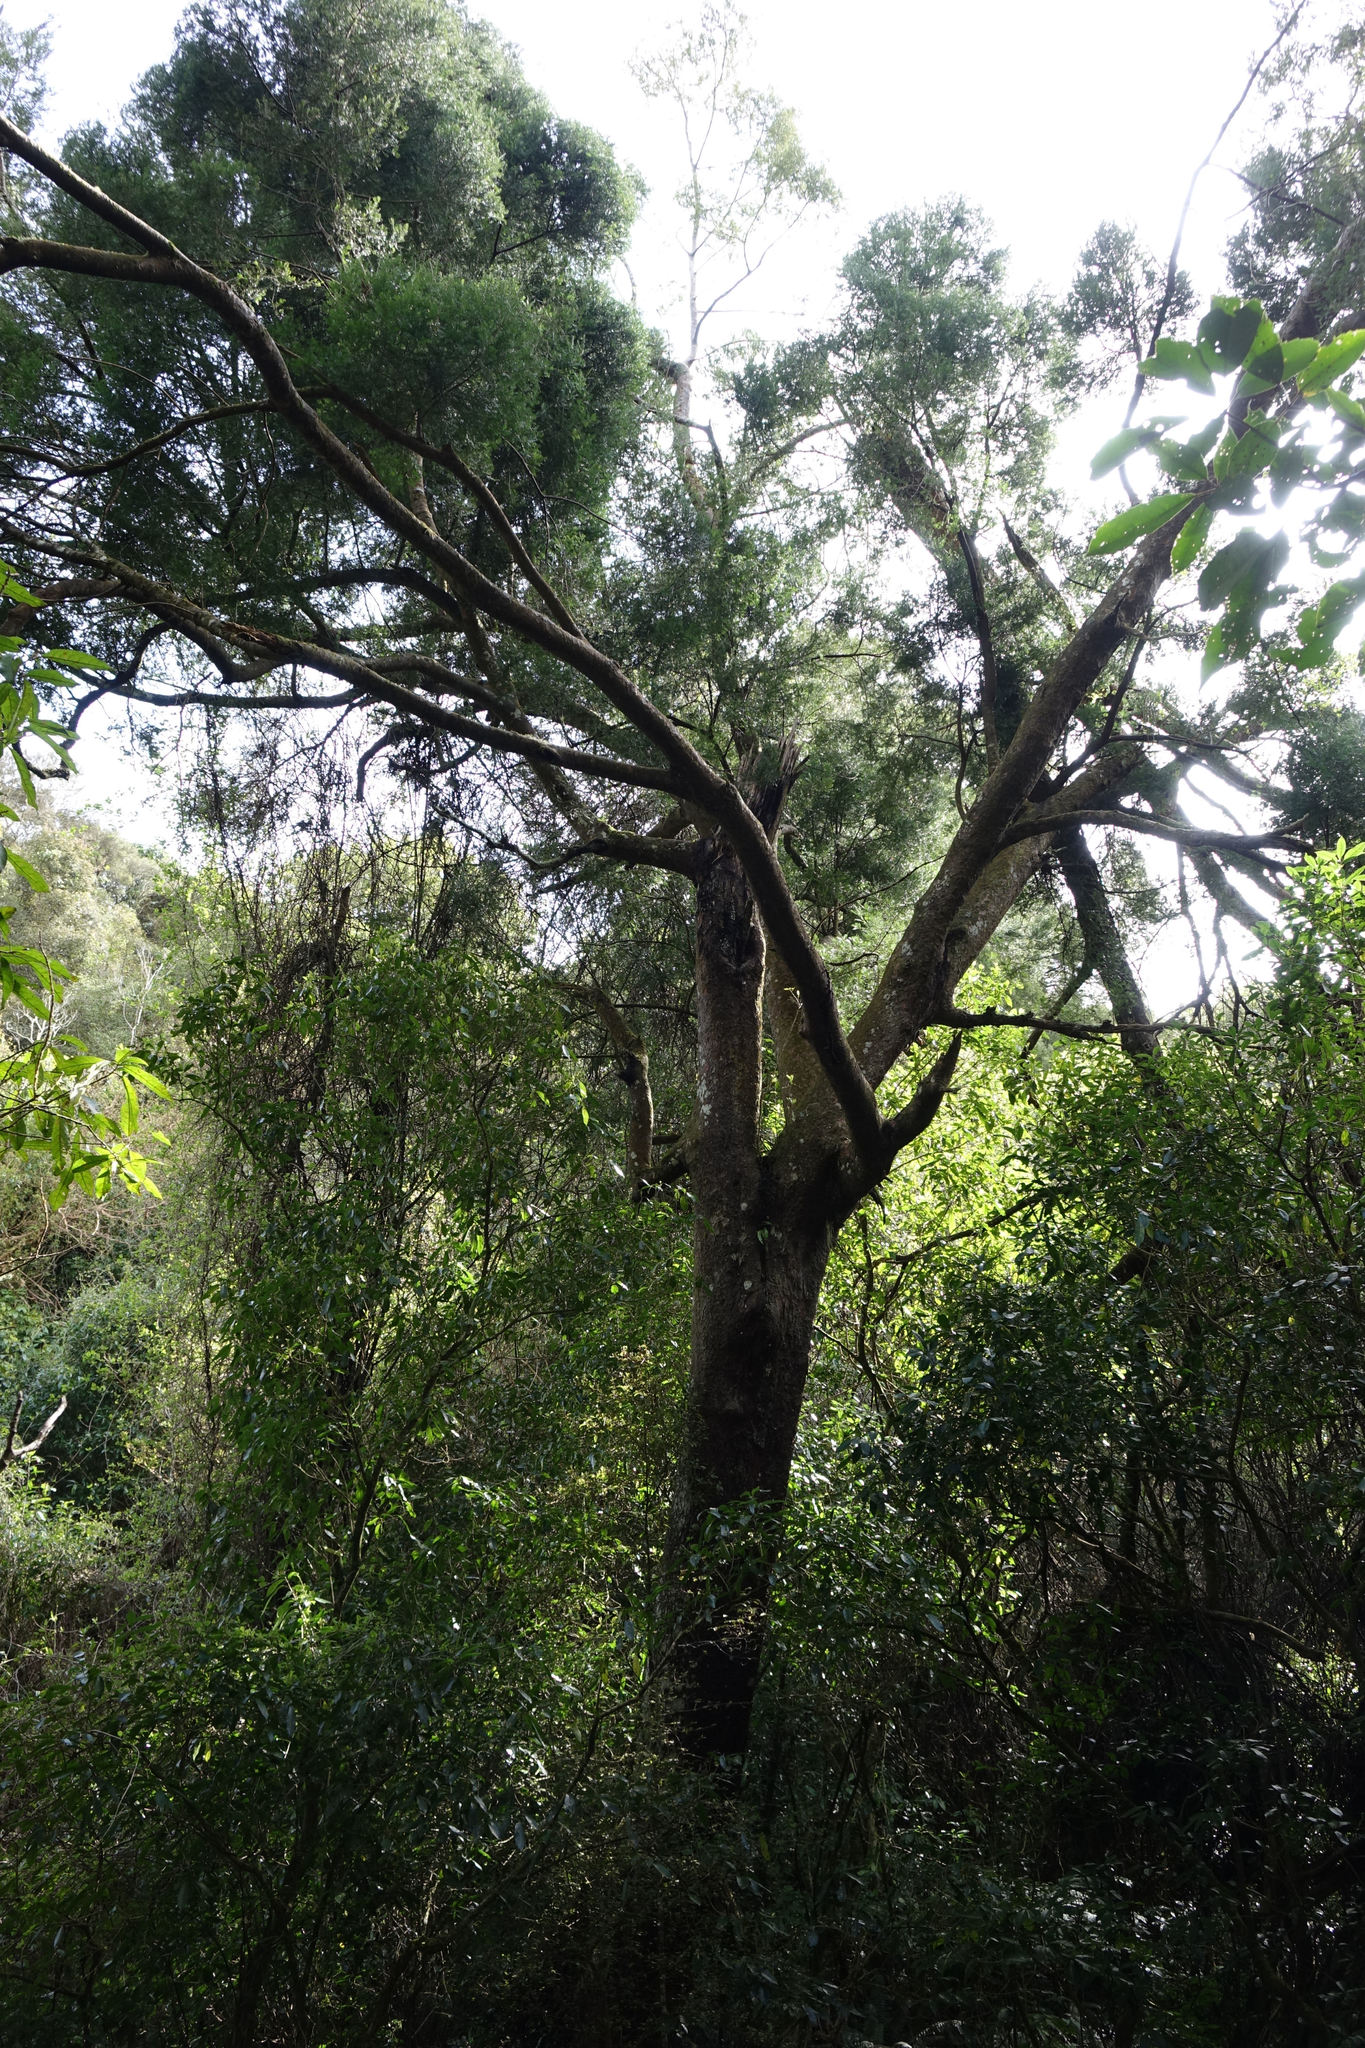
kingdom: Plantae
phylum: Tracheophyta
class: Pinopsida
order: Pinales
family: Podocarpaceae
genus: Prumnopitys
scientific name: Prumnopitys taxifolia
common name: Matai
